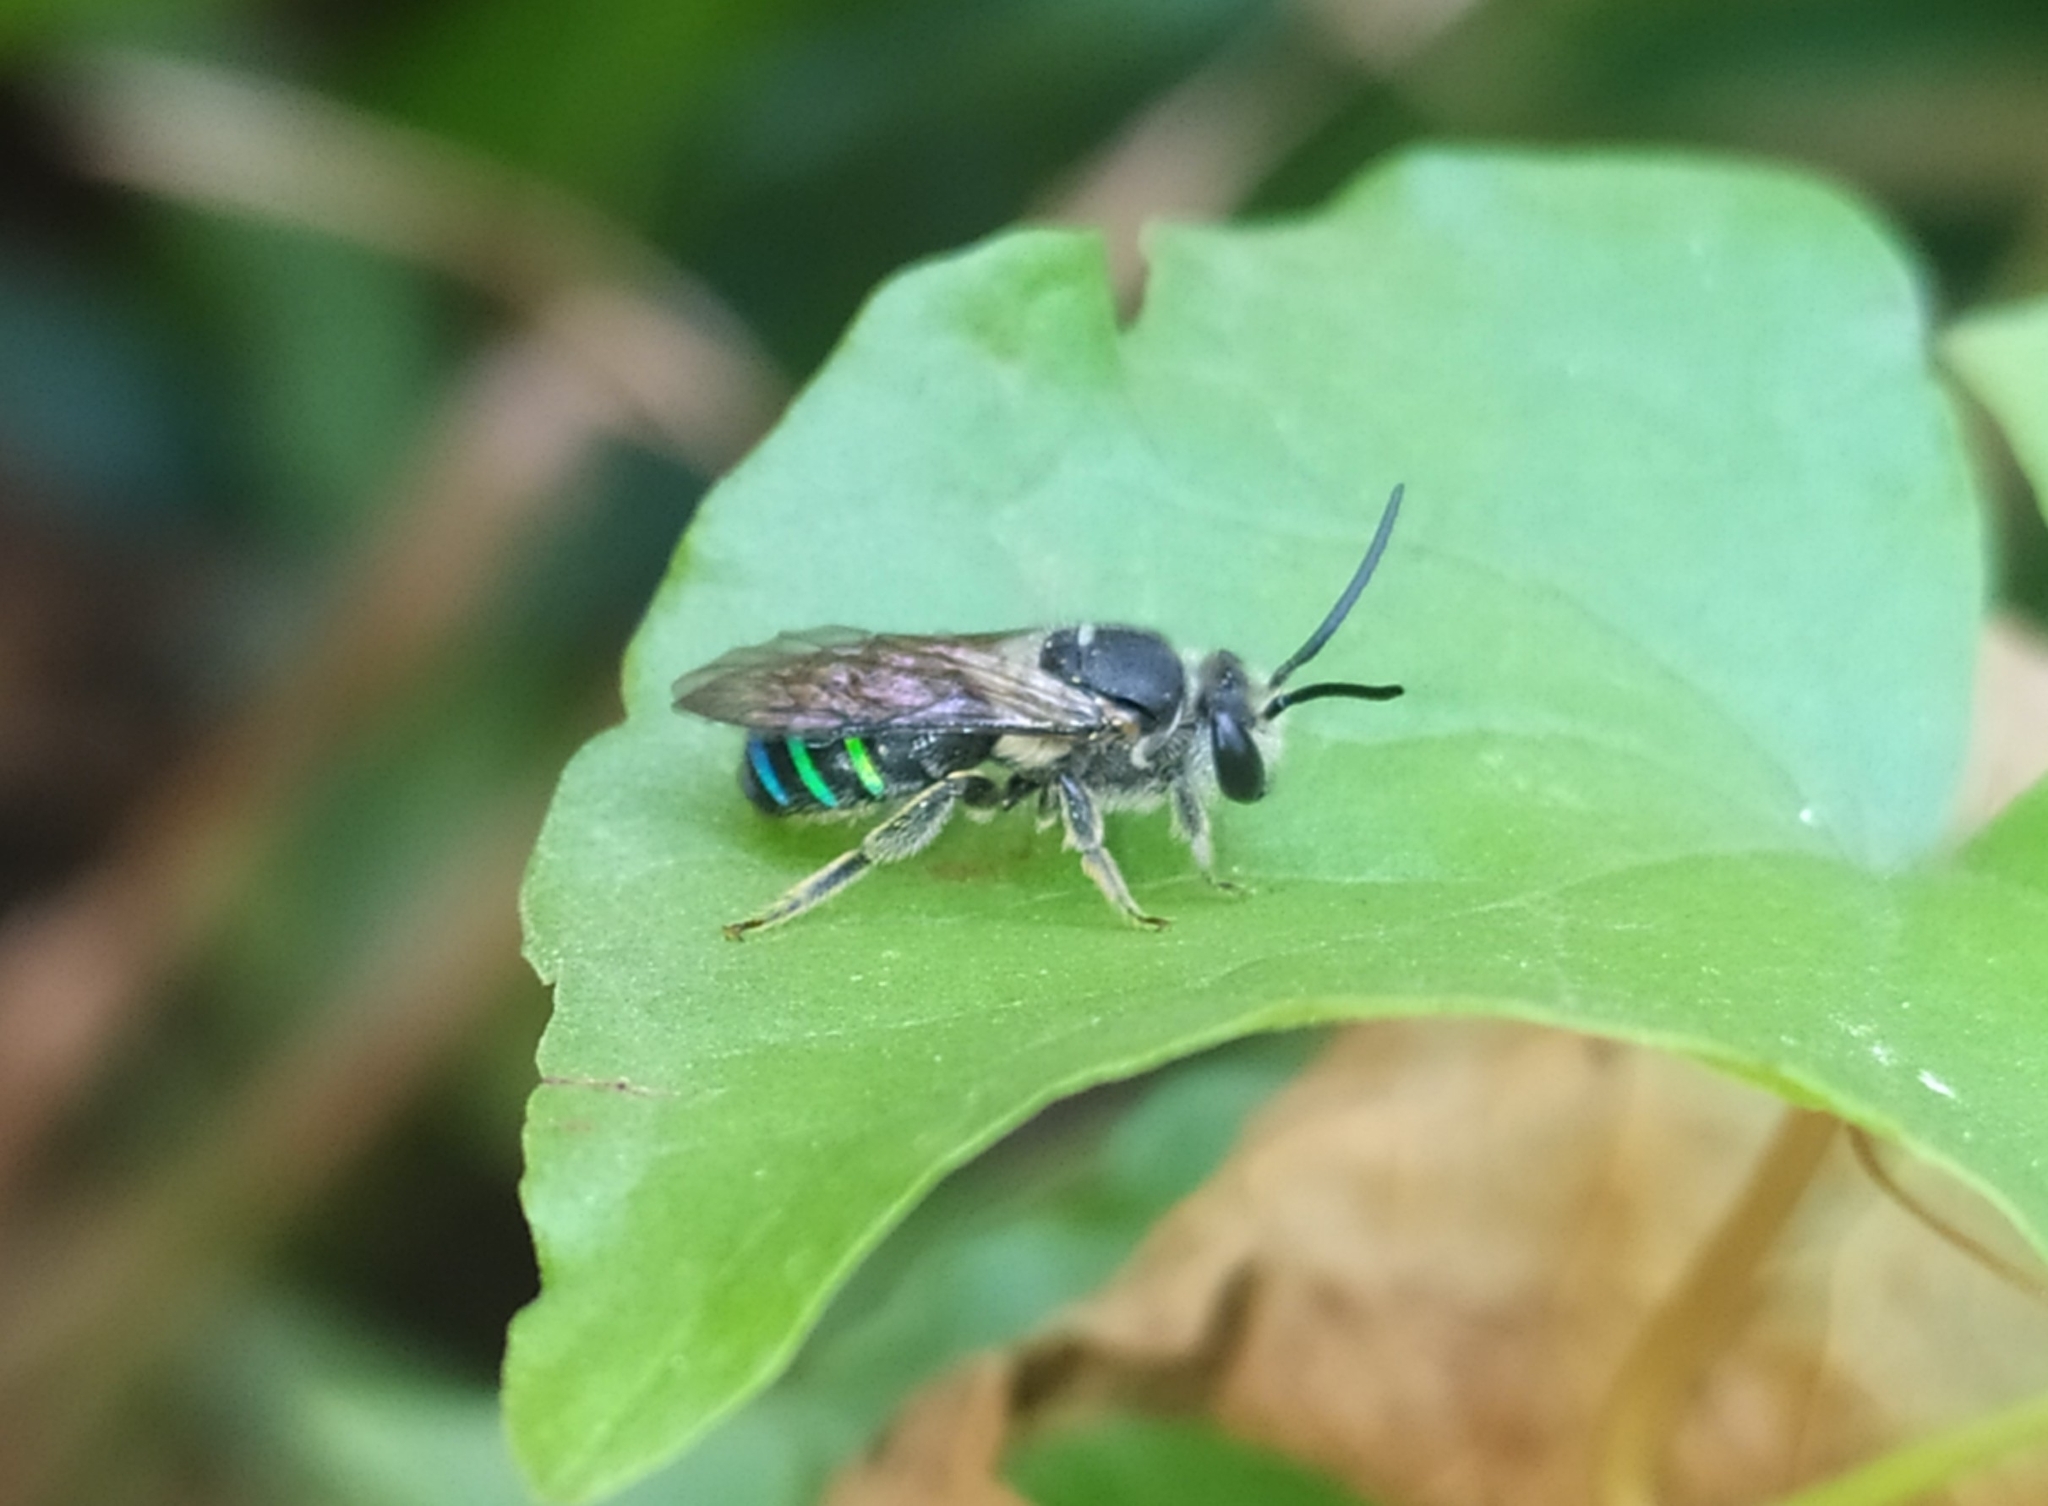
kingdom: Animalia
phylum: Arthropoda
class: Insecta
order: Hymenoptera
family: Halictidae
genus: Nomia
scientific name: Nomia iridescens
